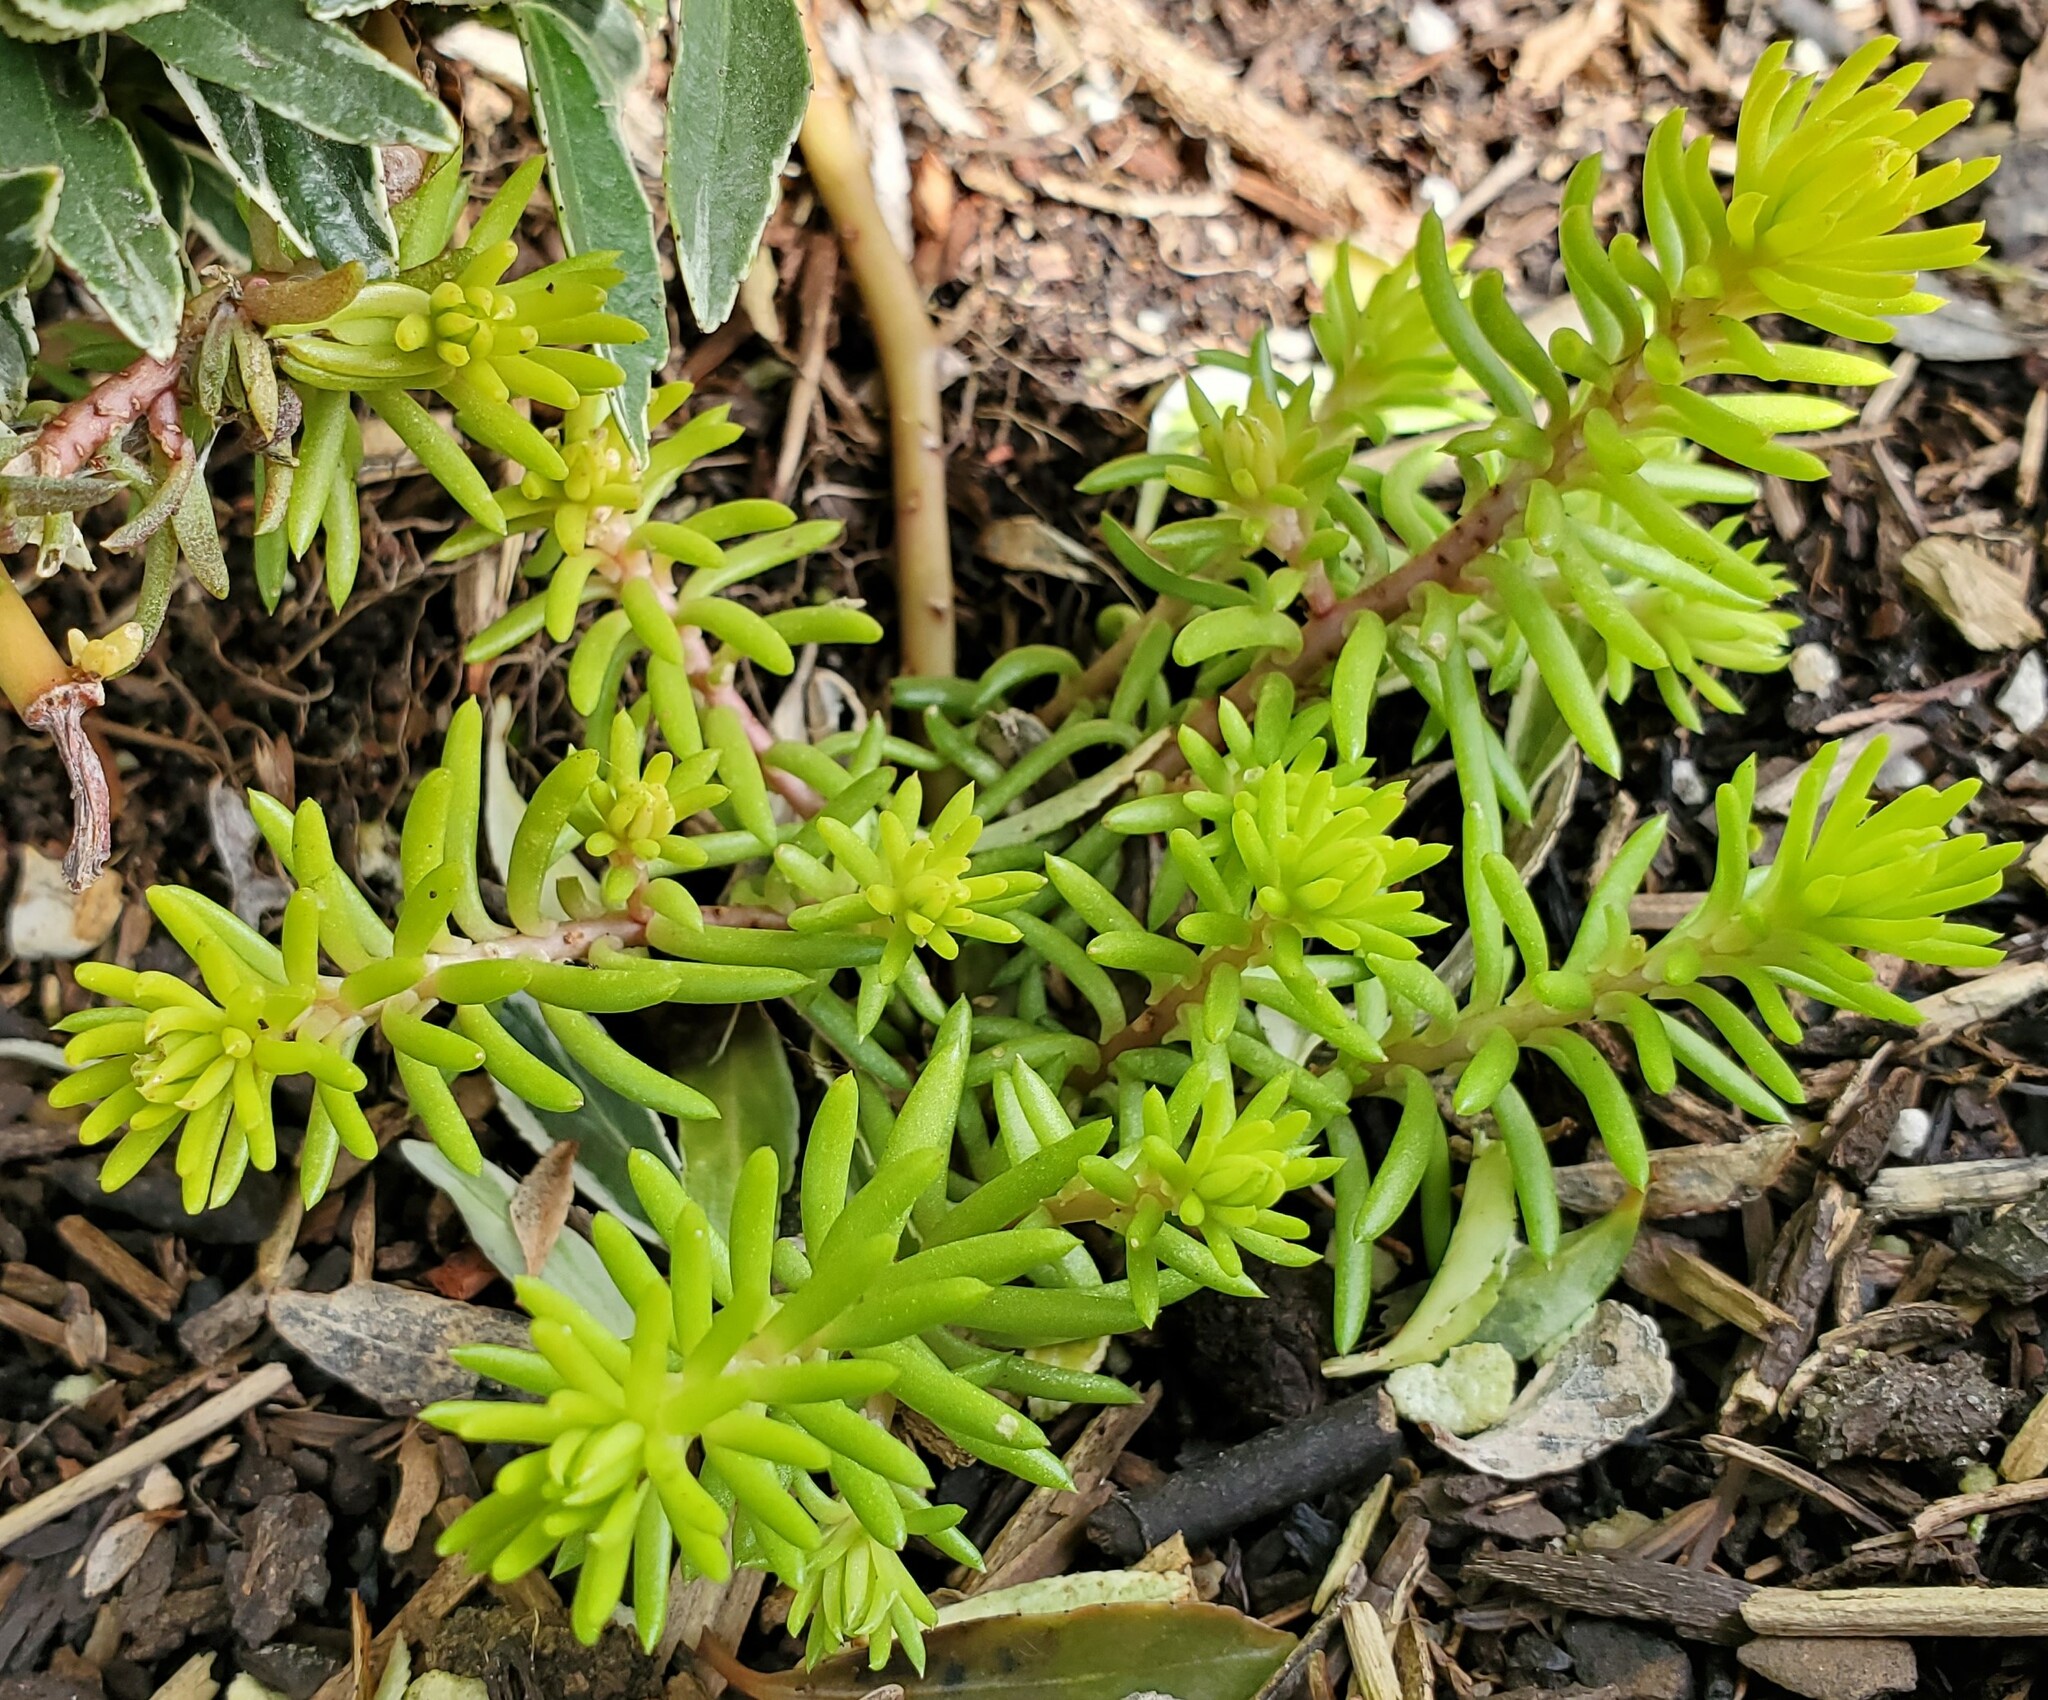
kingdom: Plantae
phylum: Tracheophyta
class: Magnoliopsida
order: Saxifragales
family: Crassulaceae
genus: Petrosedum
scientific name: Petrosedum rupestre
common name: Jenny's stonecrop
